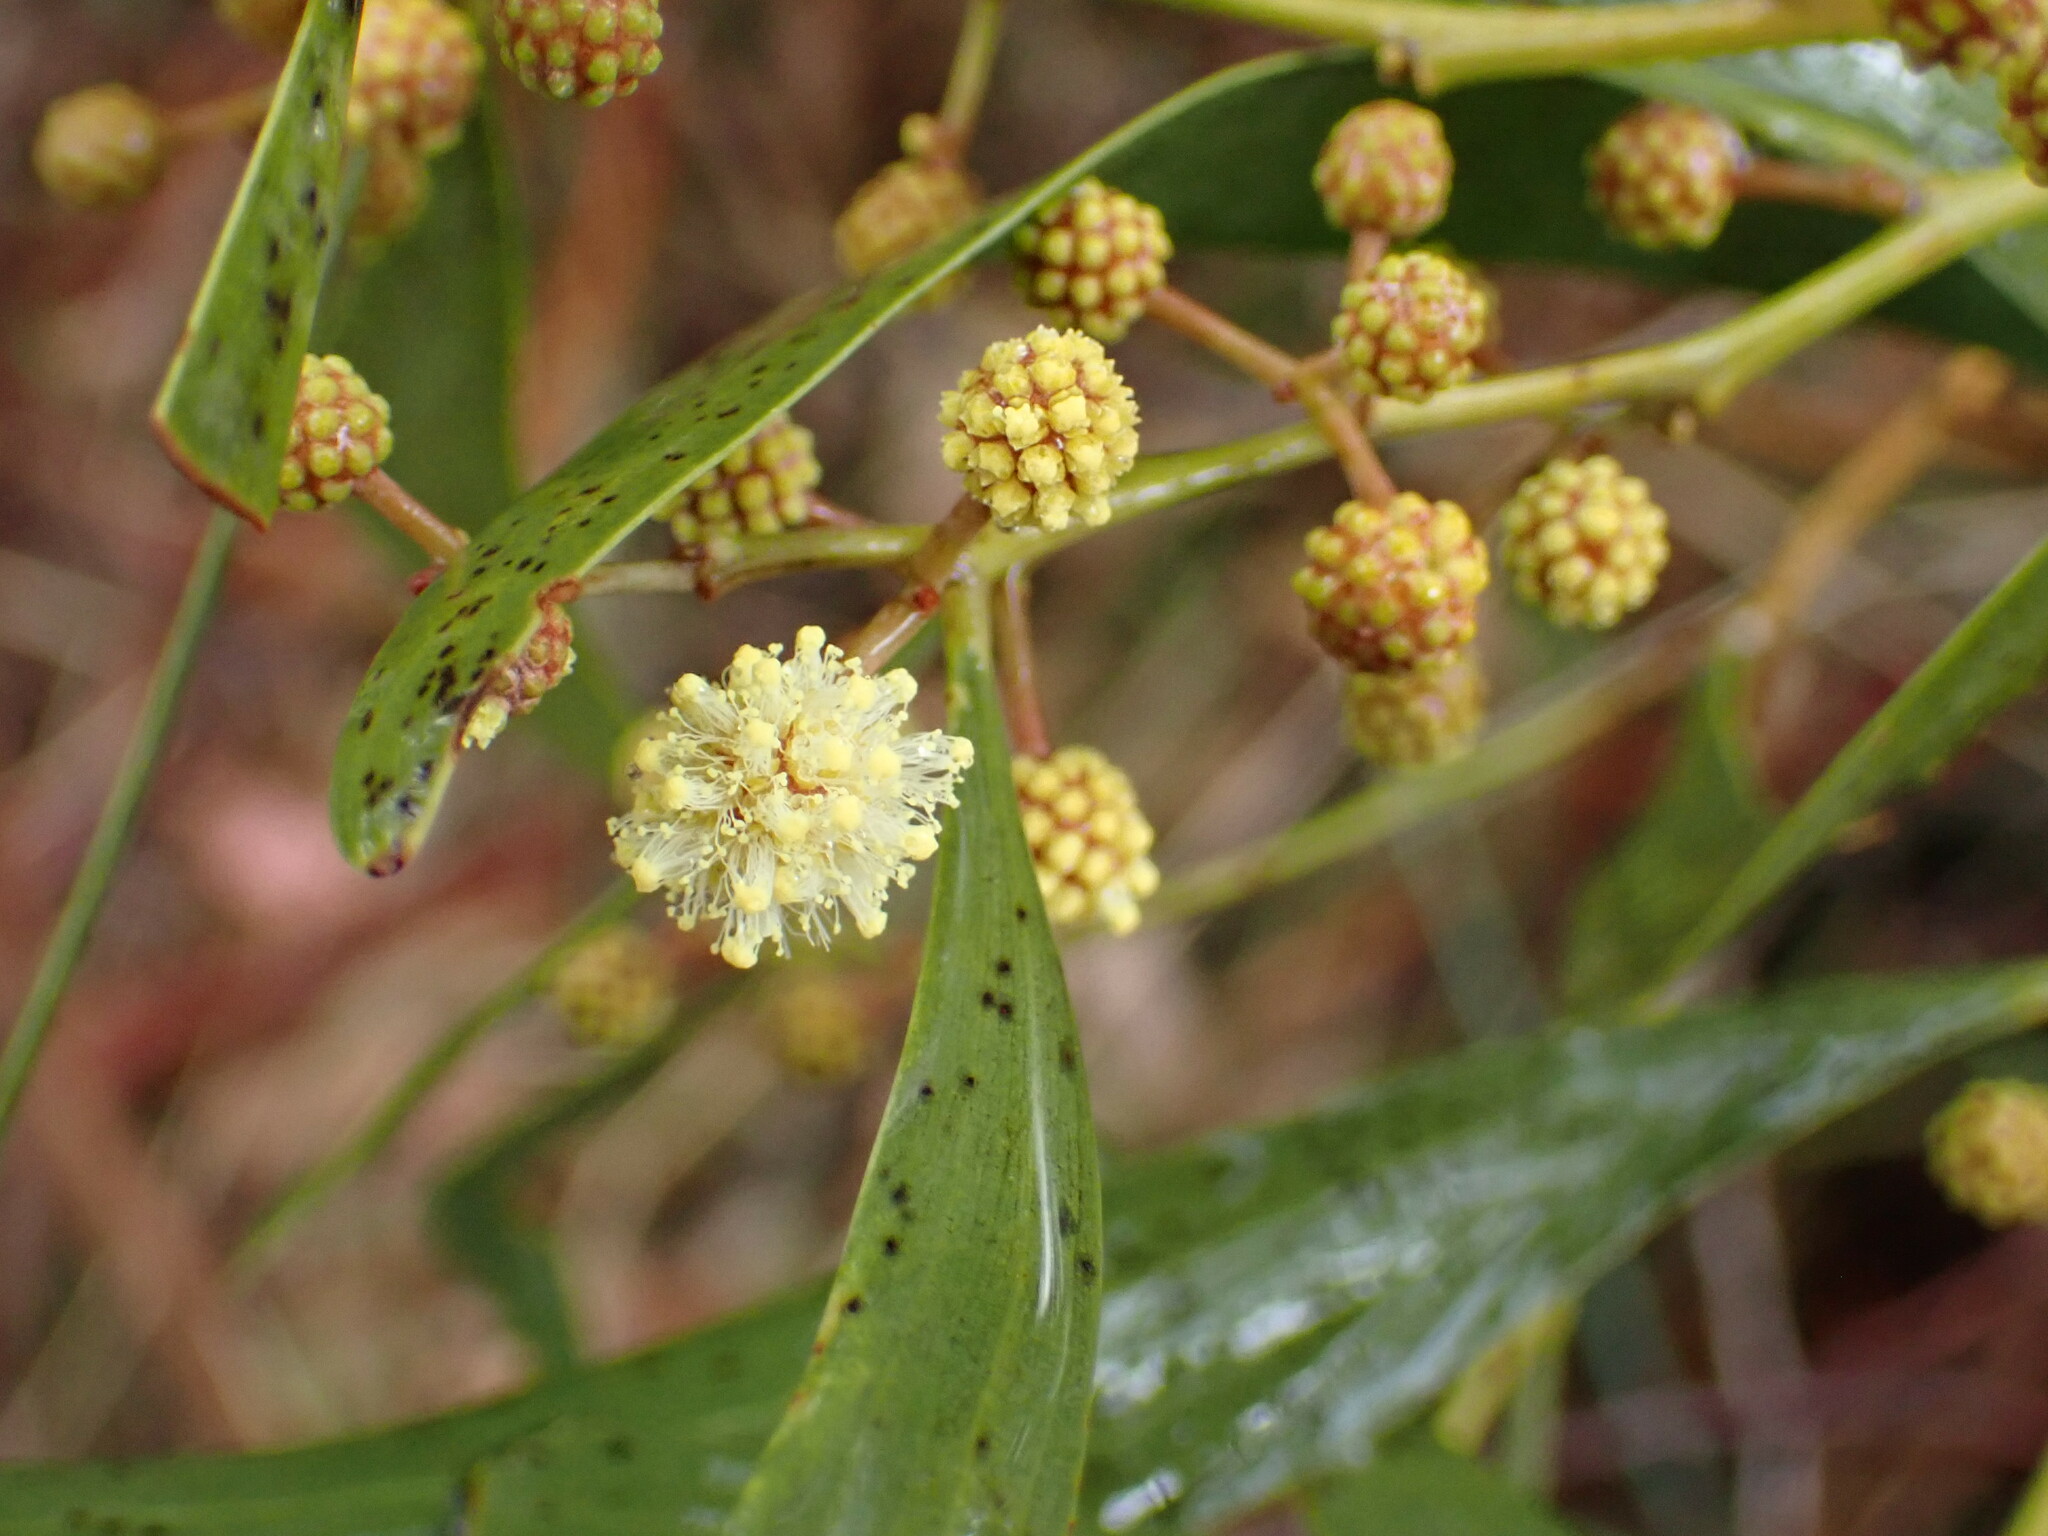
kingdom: Plantae
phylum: Tracheophyta
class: Magnoliopsida
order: Fabales
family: Fabaceae
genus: Acacia
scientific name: Acacia melanoxylon
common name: Blackwood
